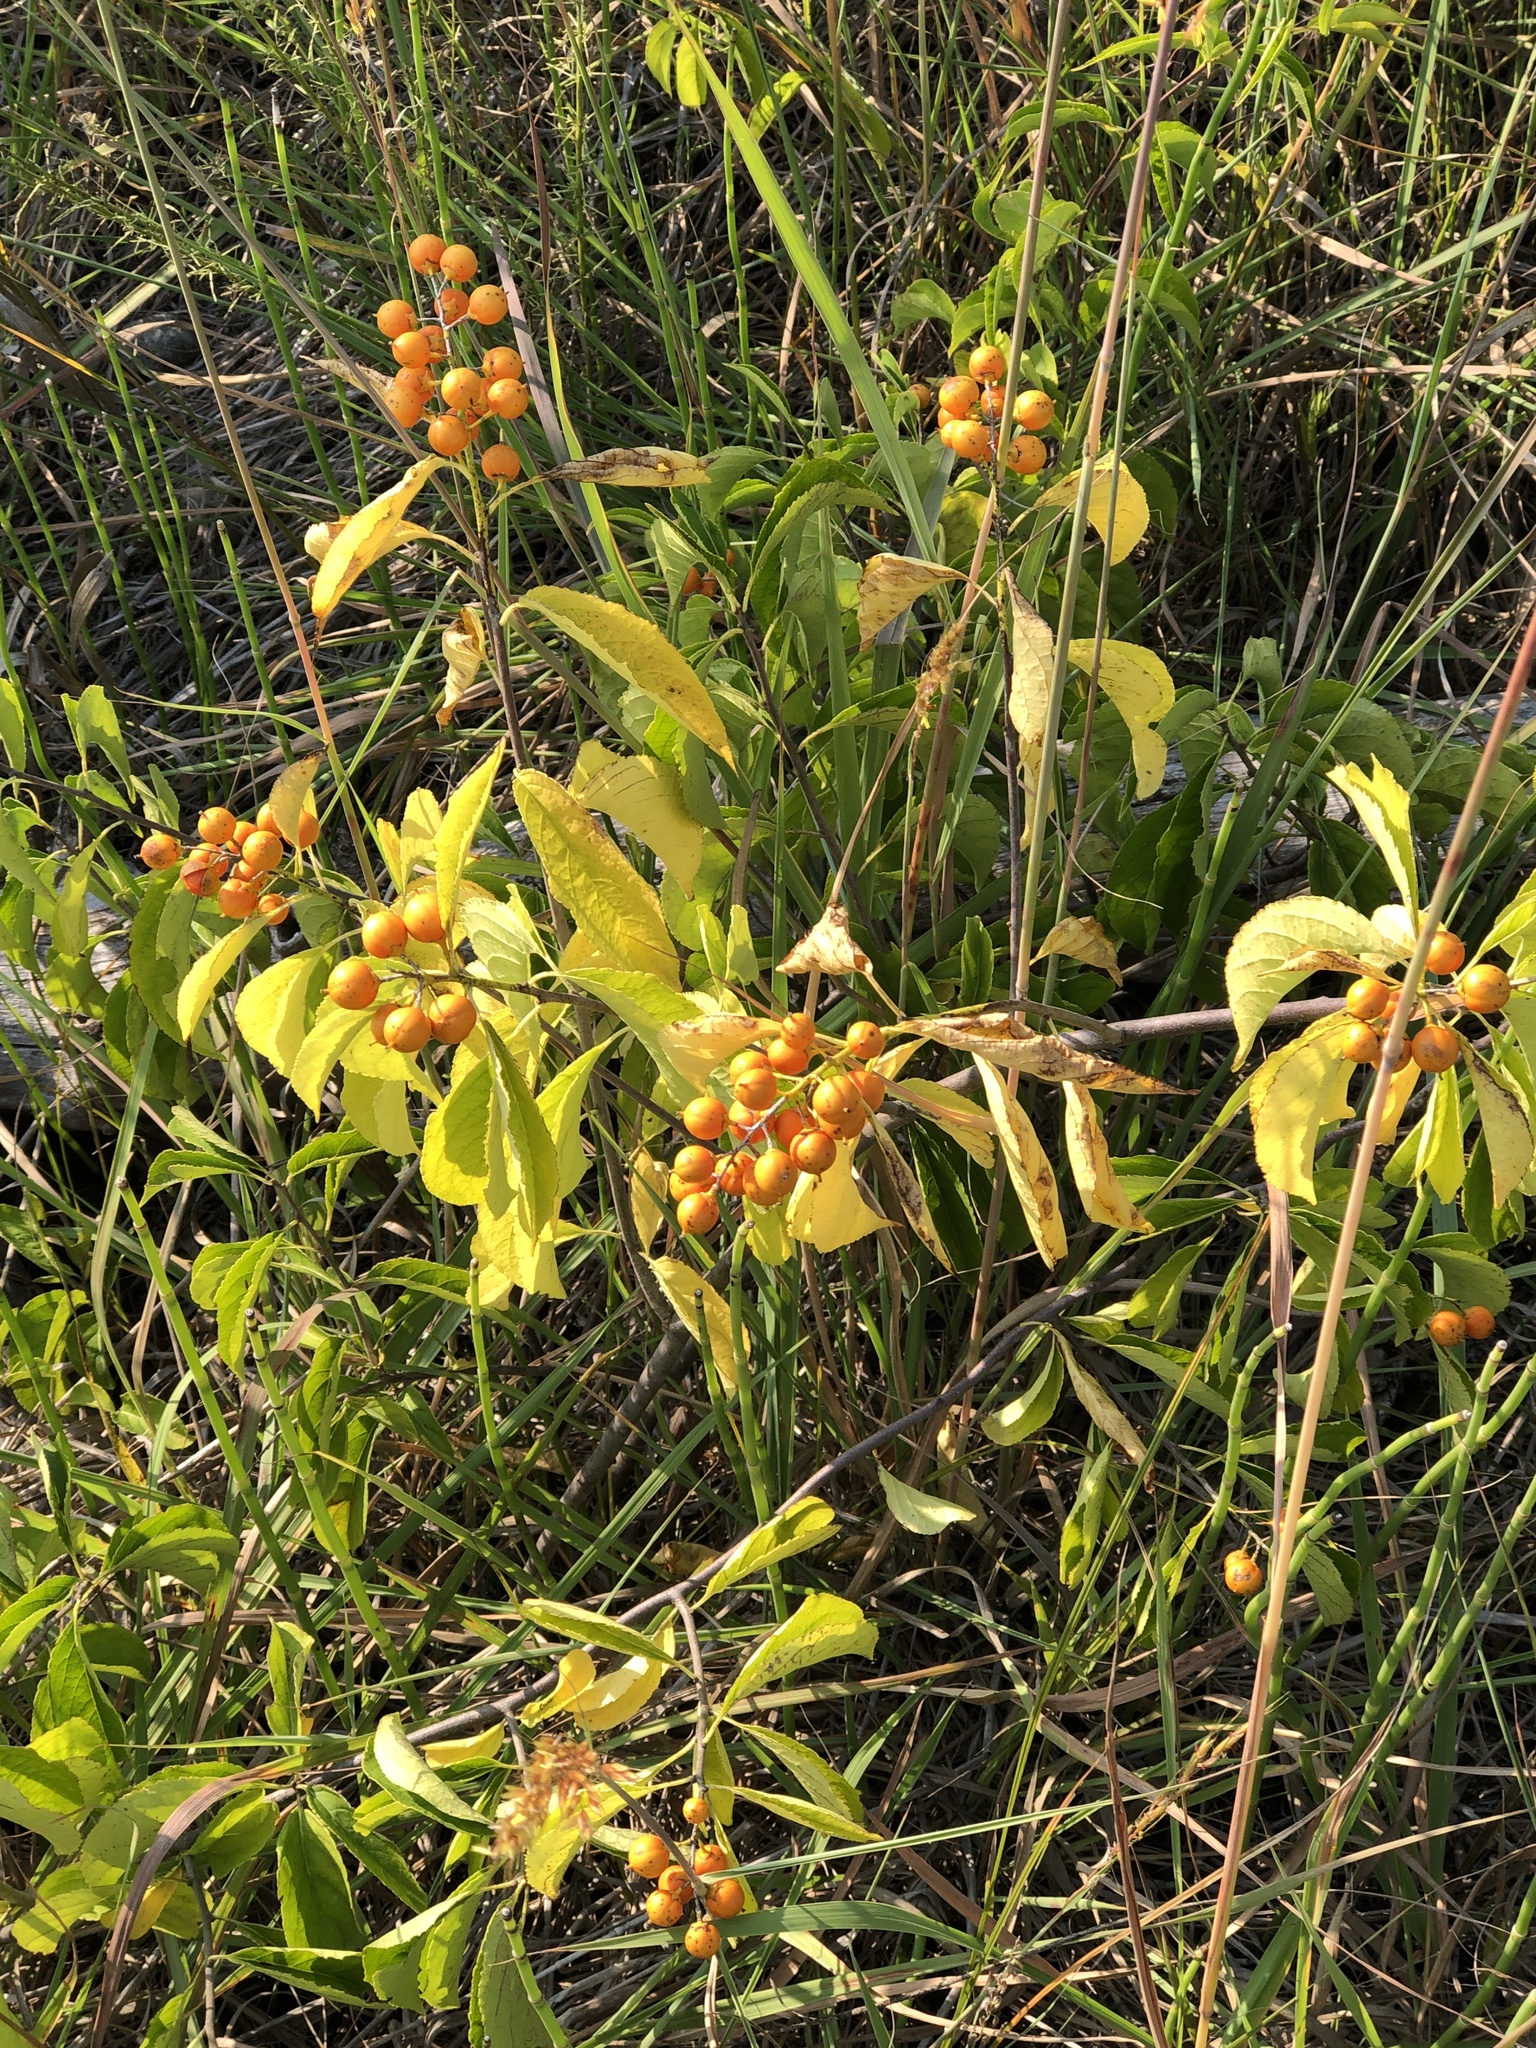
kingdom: Plantae
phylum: Tracheophyta
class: Magnoliopsida
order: Celastrales
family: Celastraceae
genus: Celastrus
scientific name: Celastrus scandens
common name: American bittersweet
